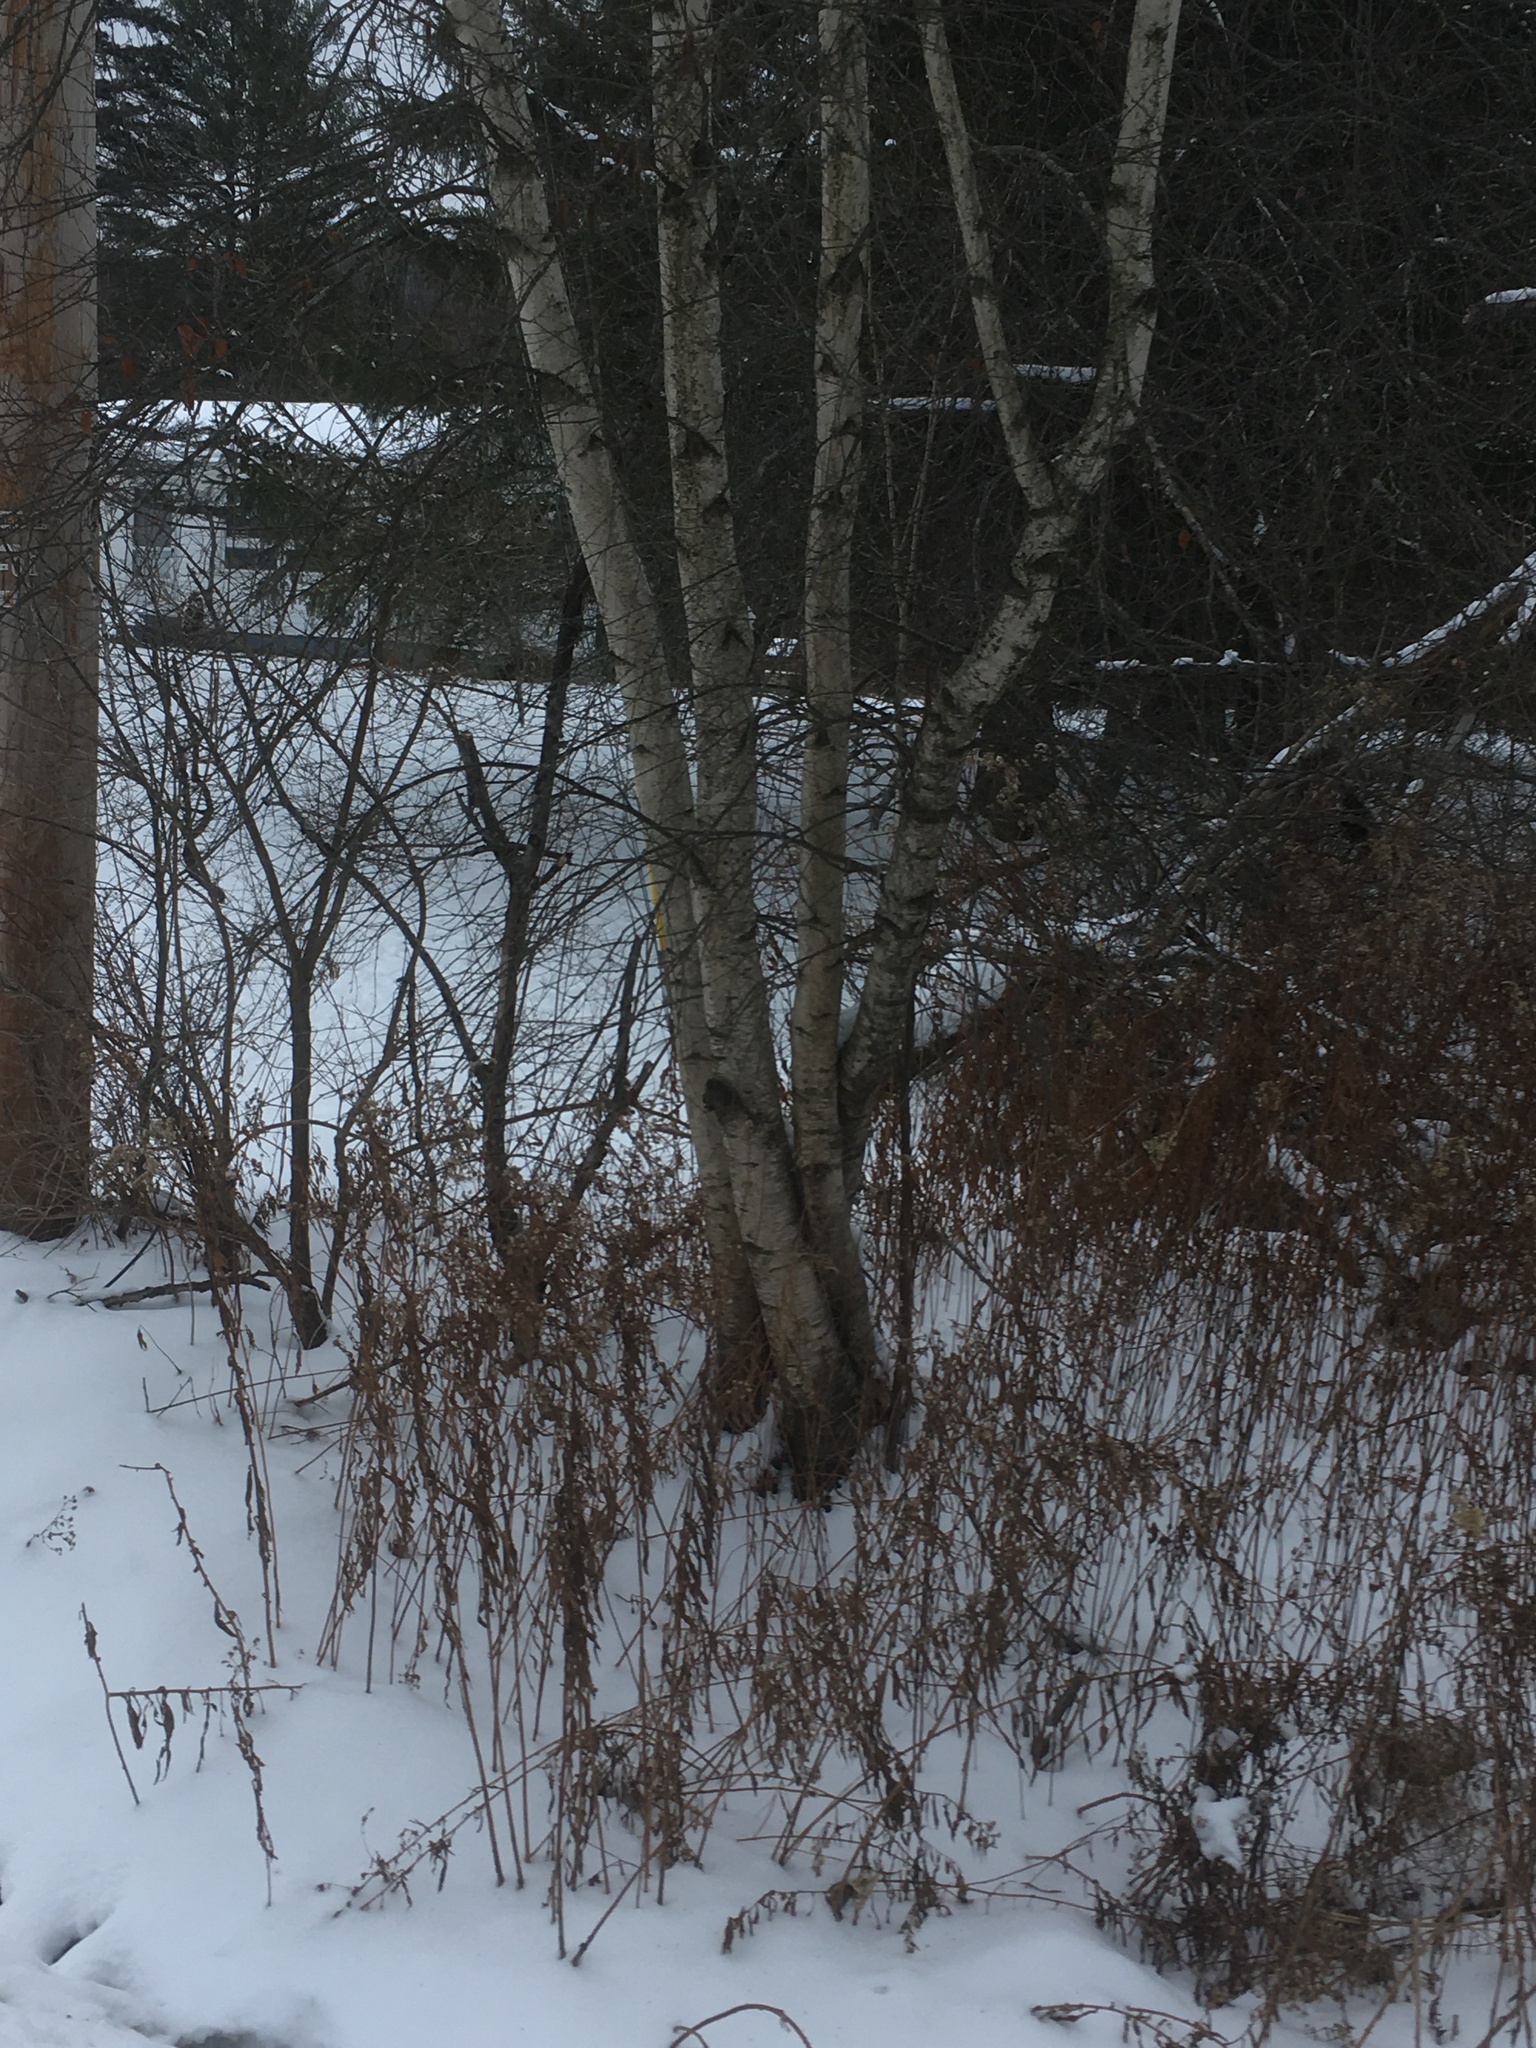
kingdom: Plantae
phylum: Tracheophyta
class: Magnoliopsida
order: Fagales
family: Betulaceae
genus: Betula
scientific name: Betula populifolia
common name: Fire birch
